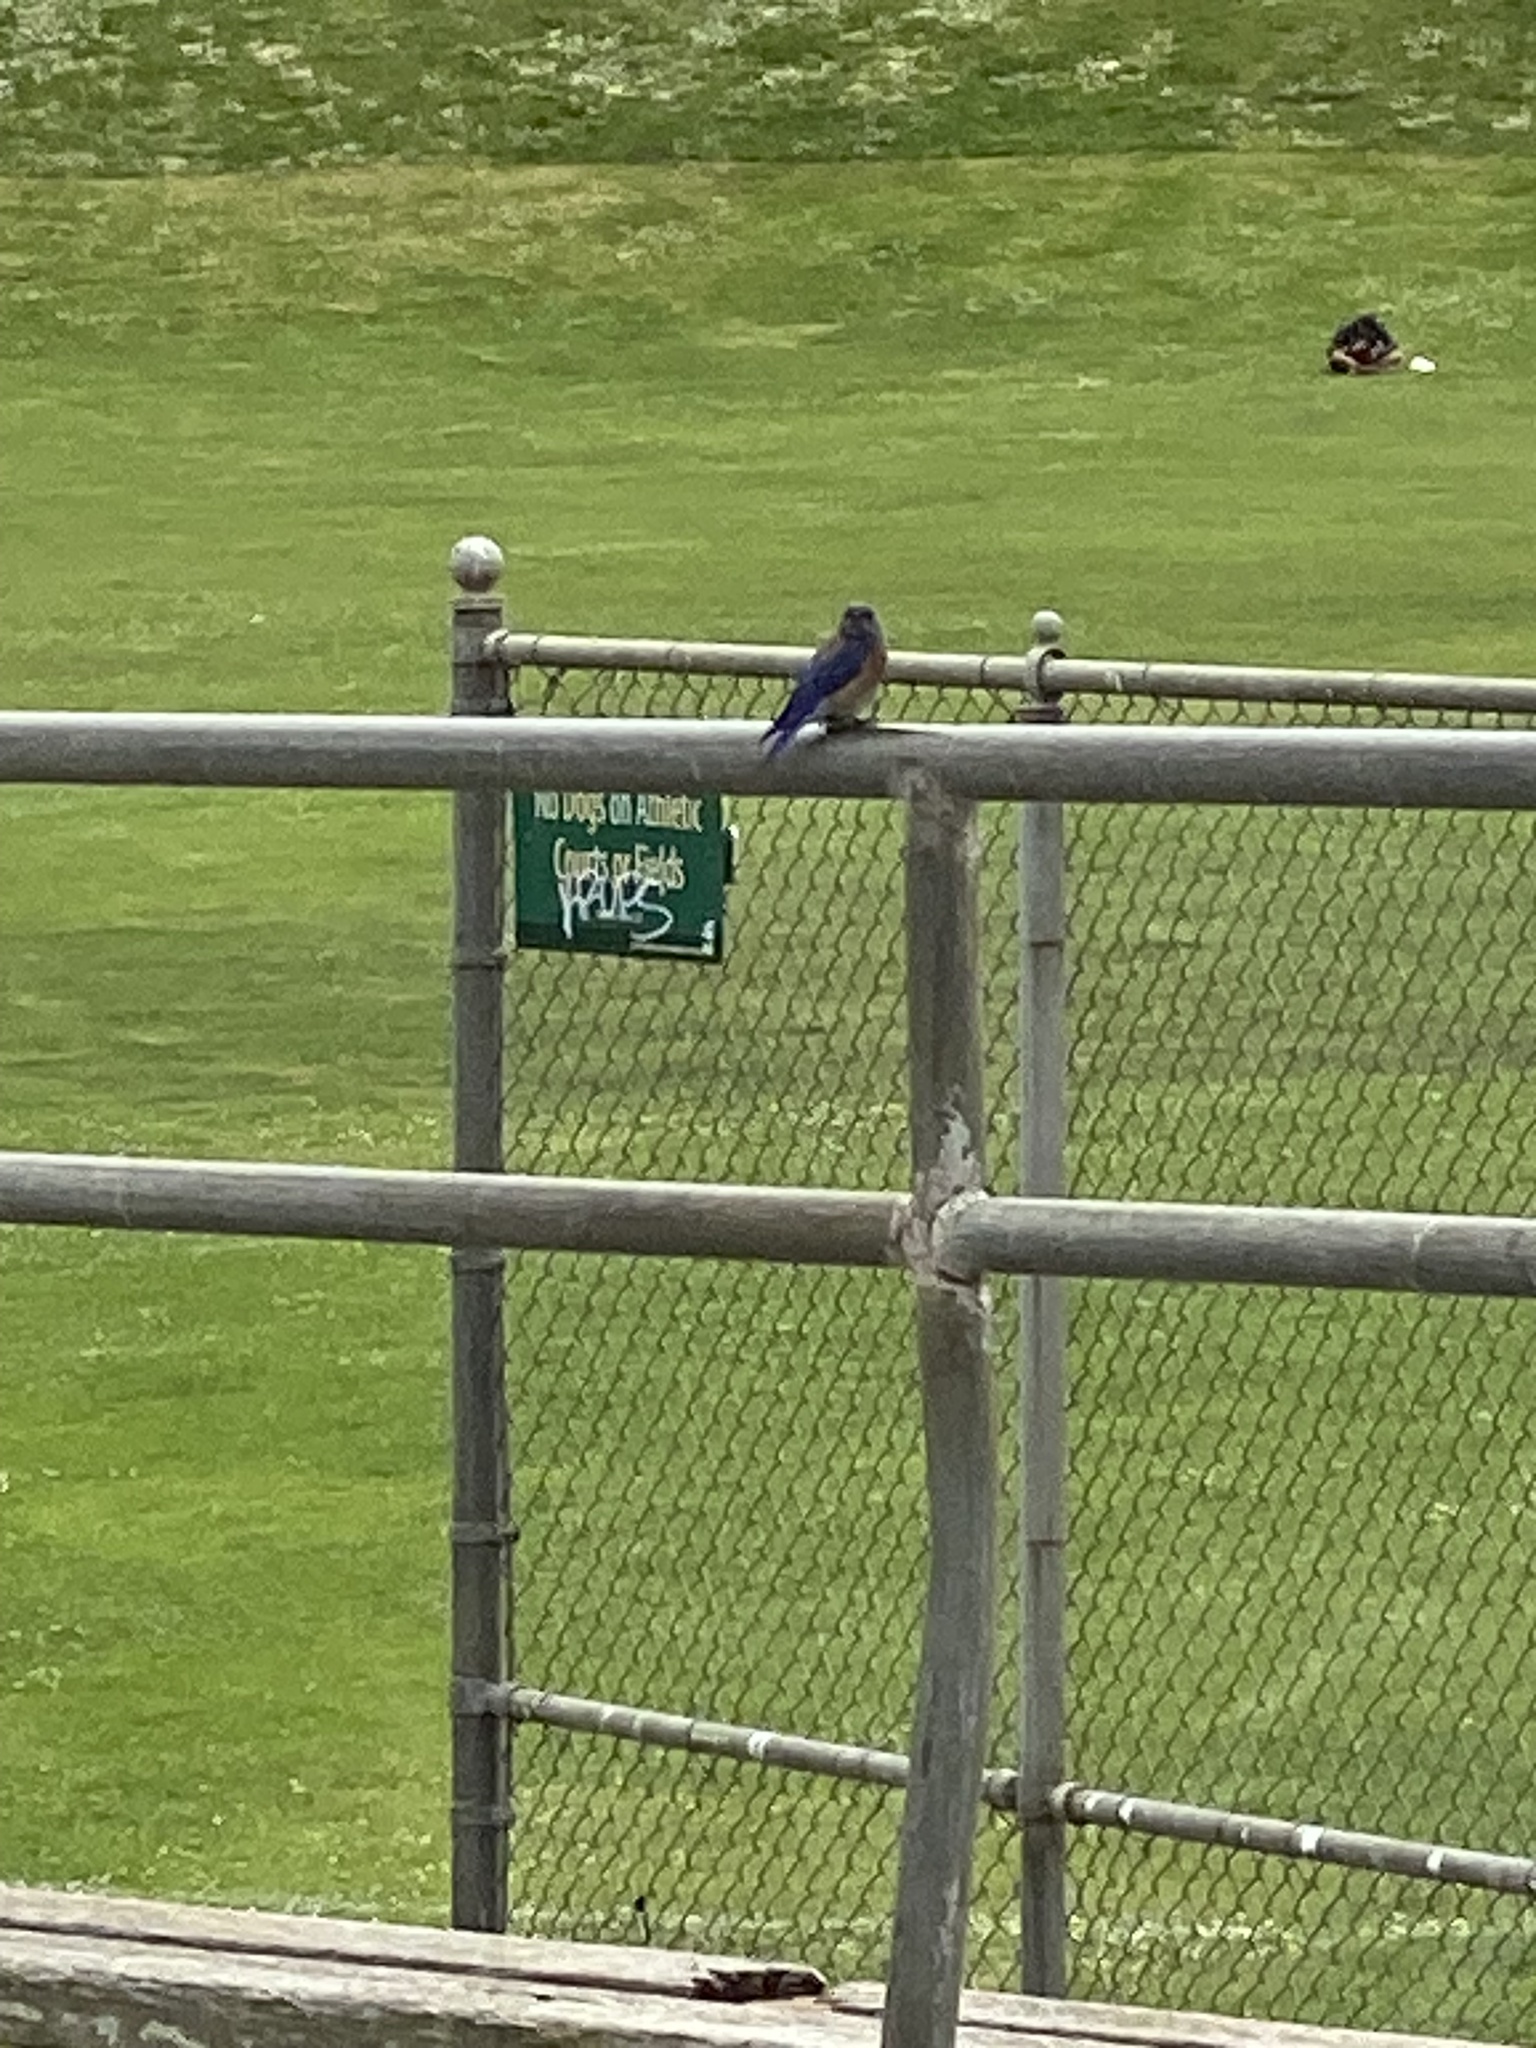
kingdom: Animalia
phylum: Chordata
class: Aves
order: Passeriformes
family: Turdidae
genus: Sialia
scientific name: Sialia mexicana
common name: Western bluebird
